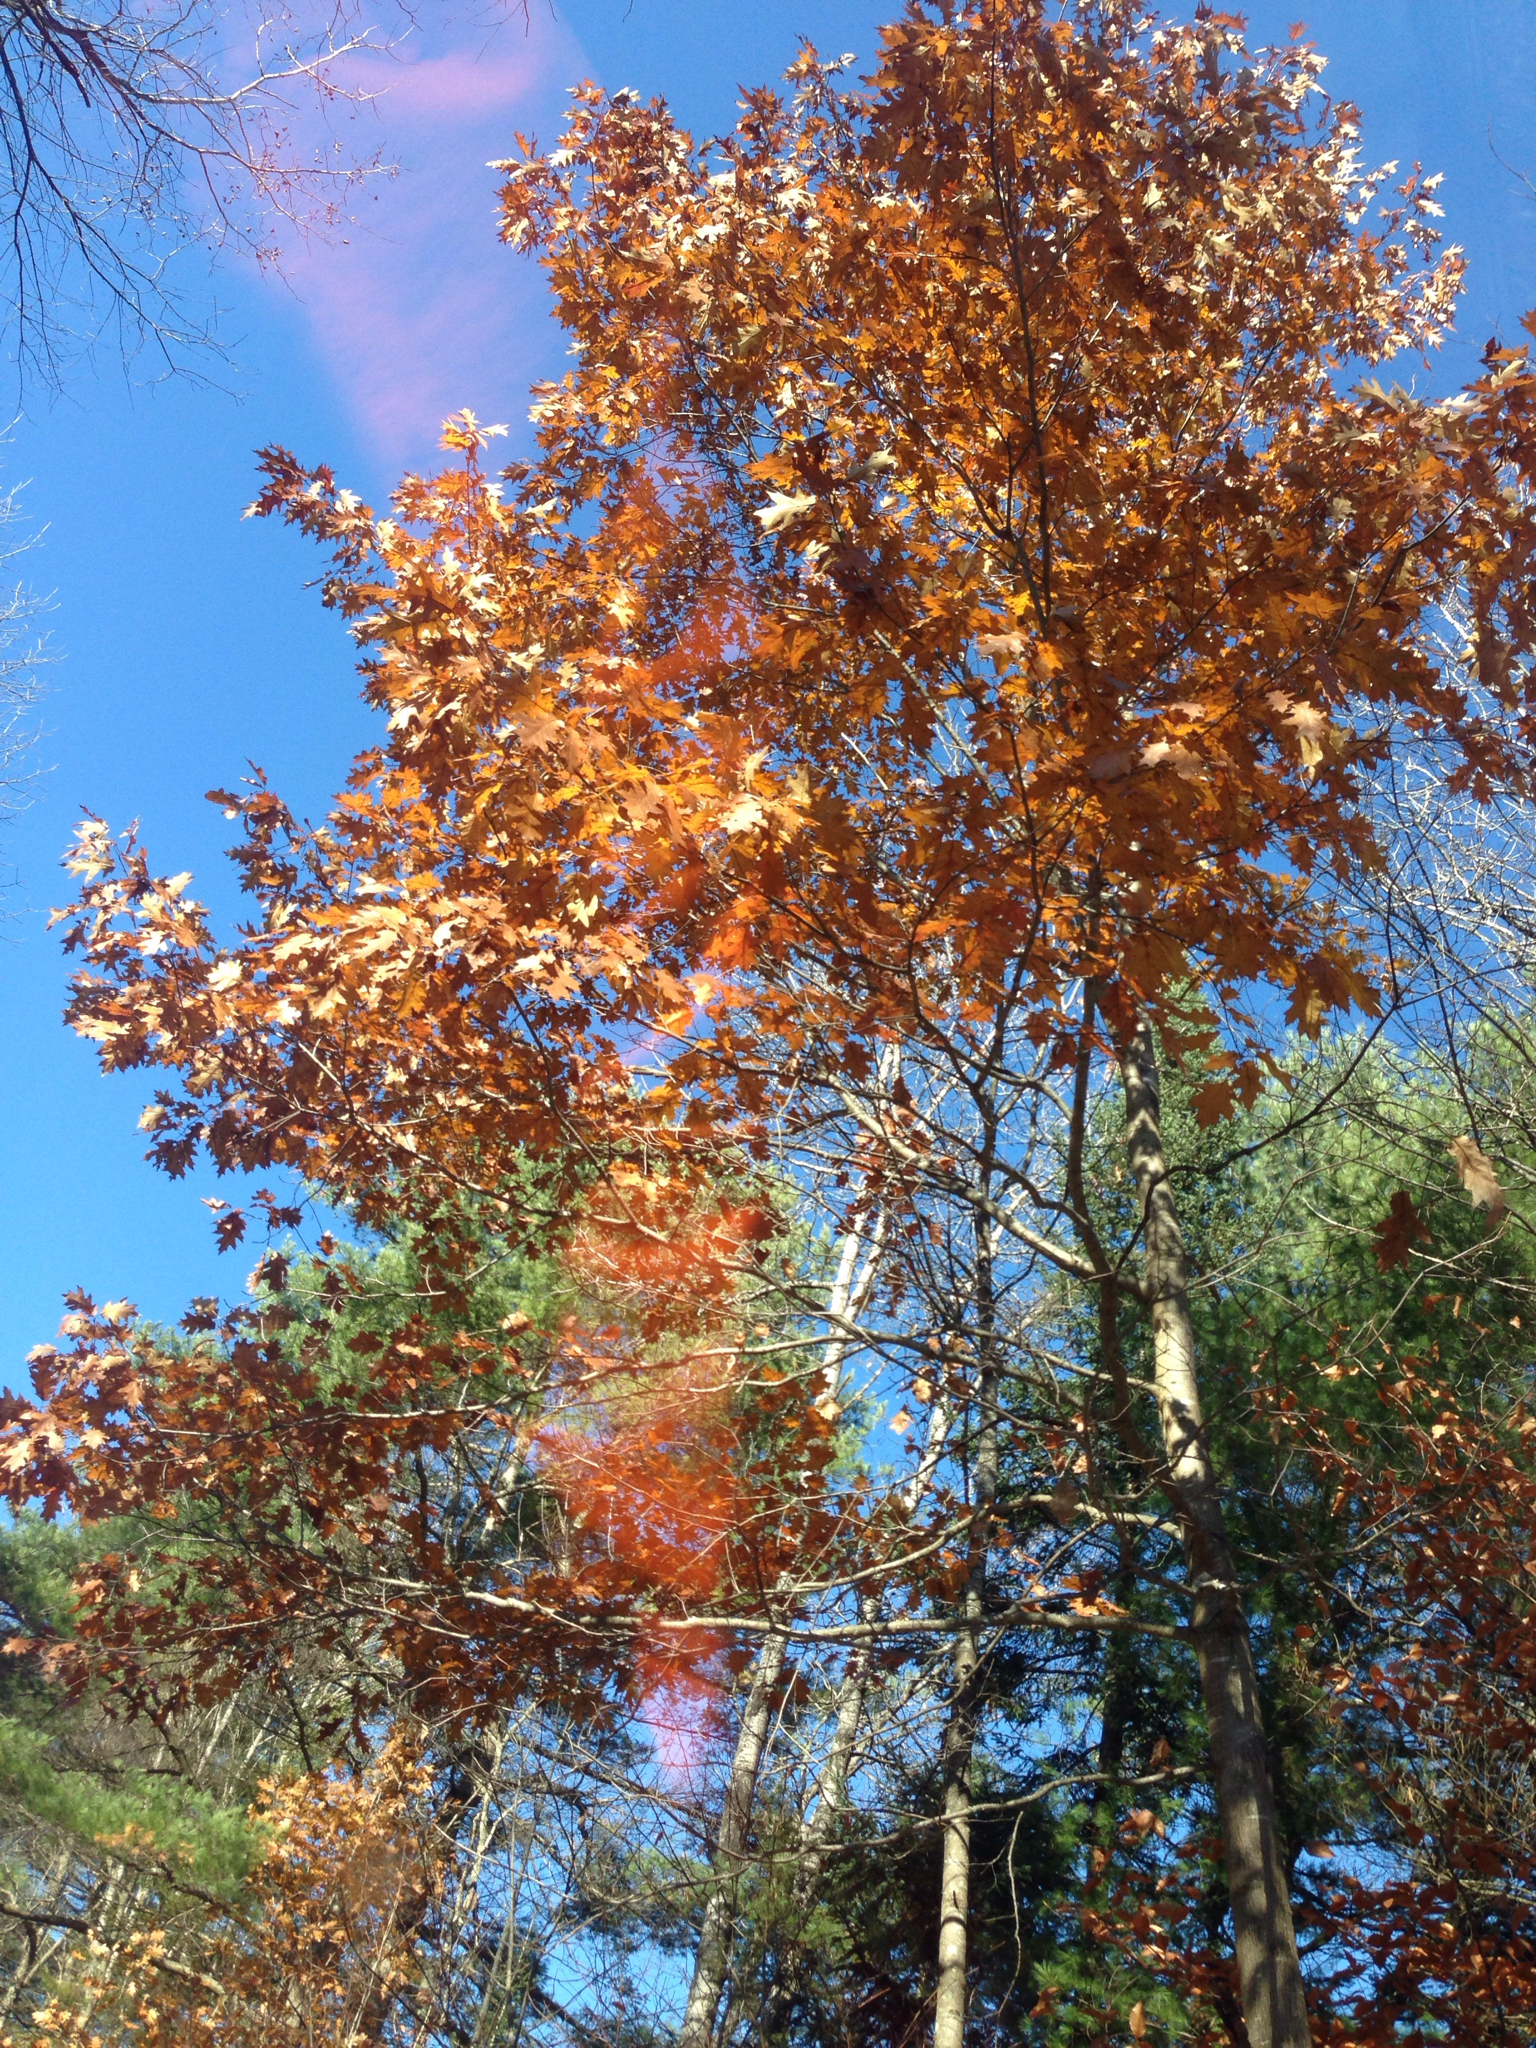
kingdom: Plantae
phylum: Tracheophyta
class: Magnoliopsida
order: Fagales
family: Fagaceae
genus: Quercus
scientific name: Quercus rubra
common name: Red oak
